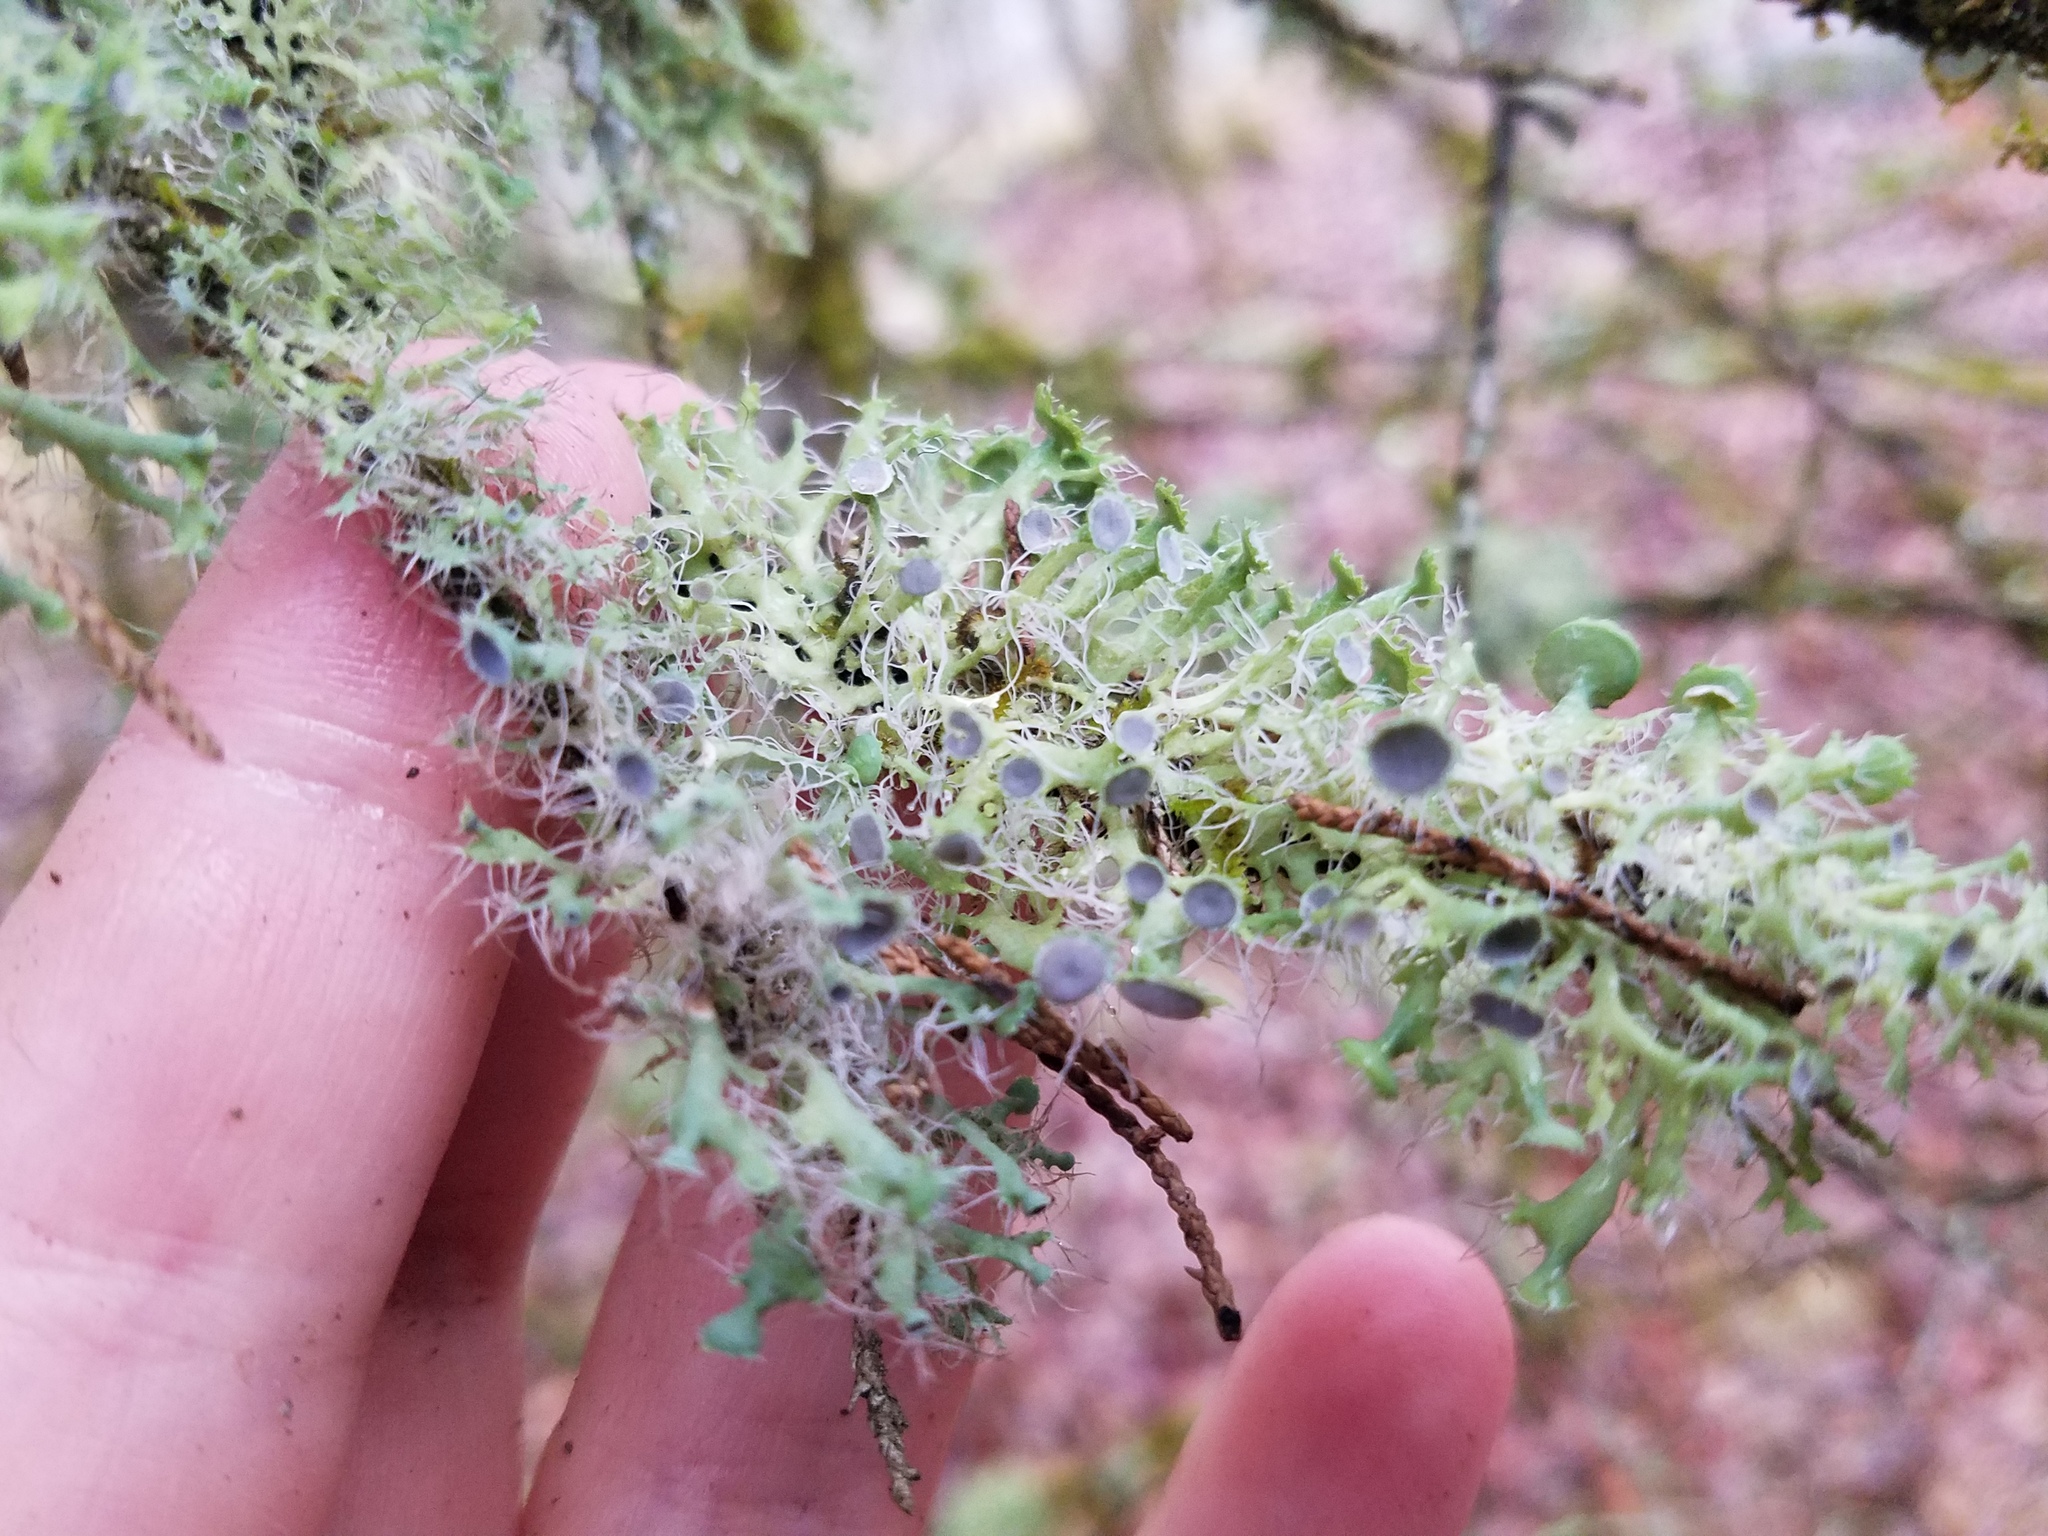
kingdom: Fungi
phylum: Ascomycota
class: Lecanoromycetes
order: Caliciales
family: Physciaceae
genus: Heterodermia
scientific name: Heterodermia echinata
